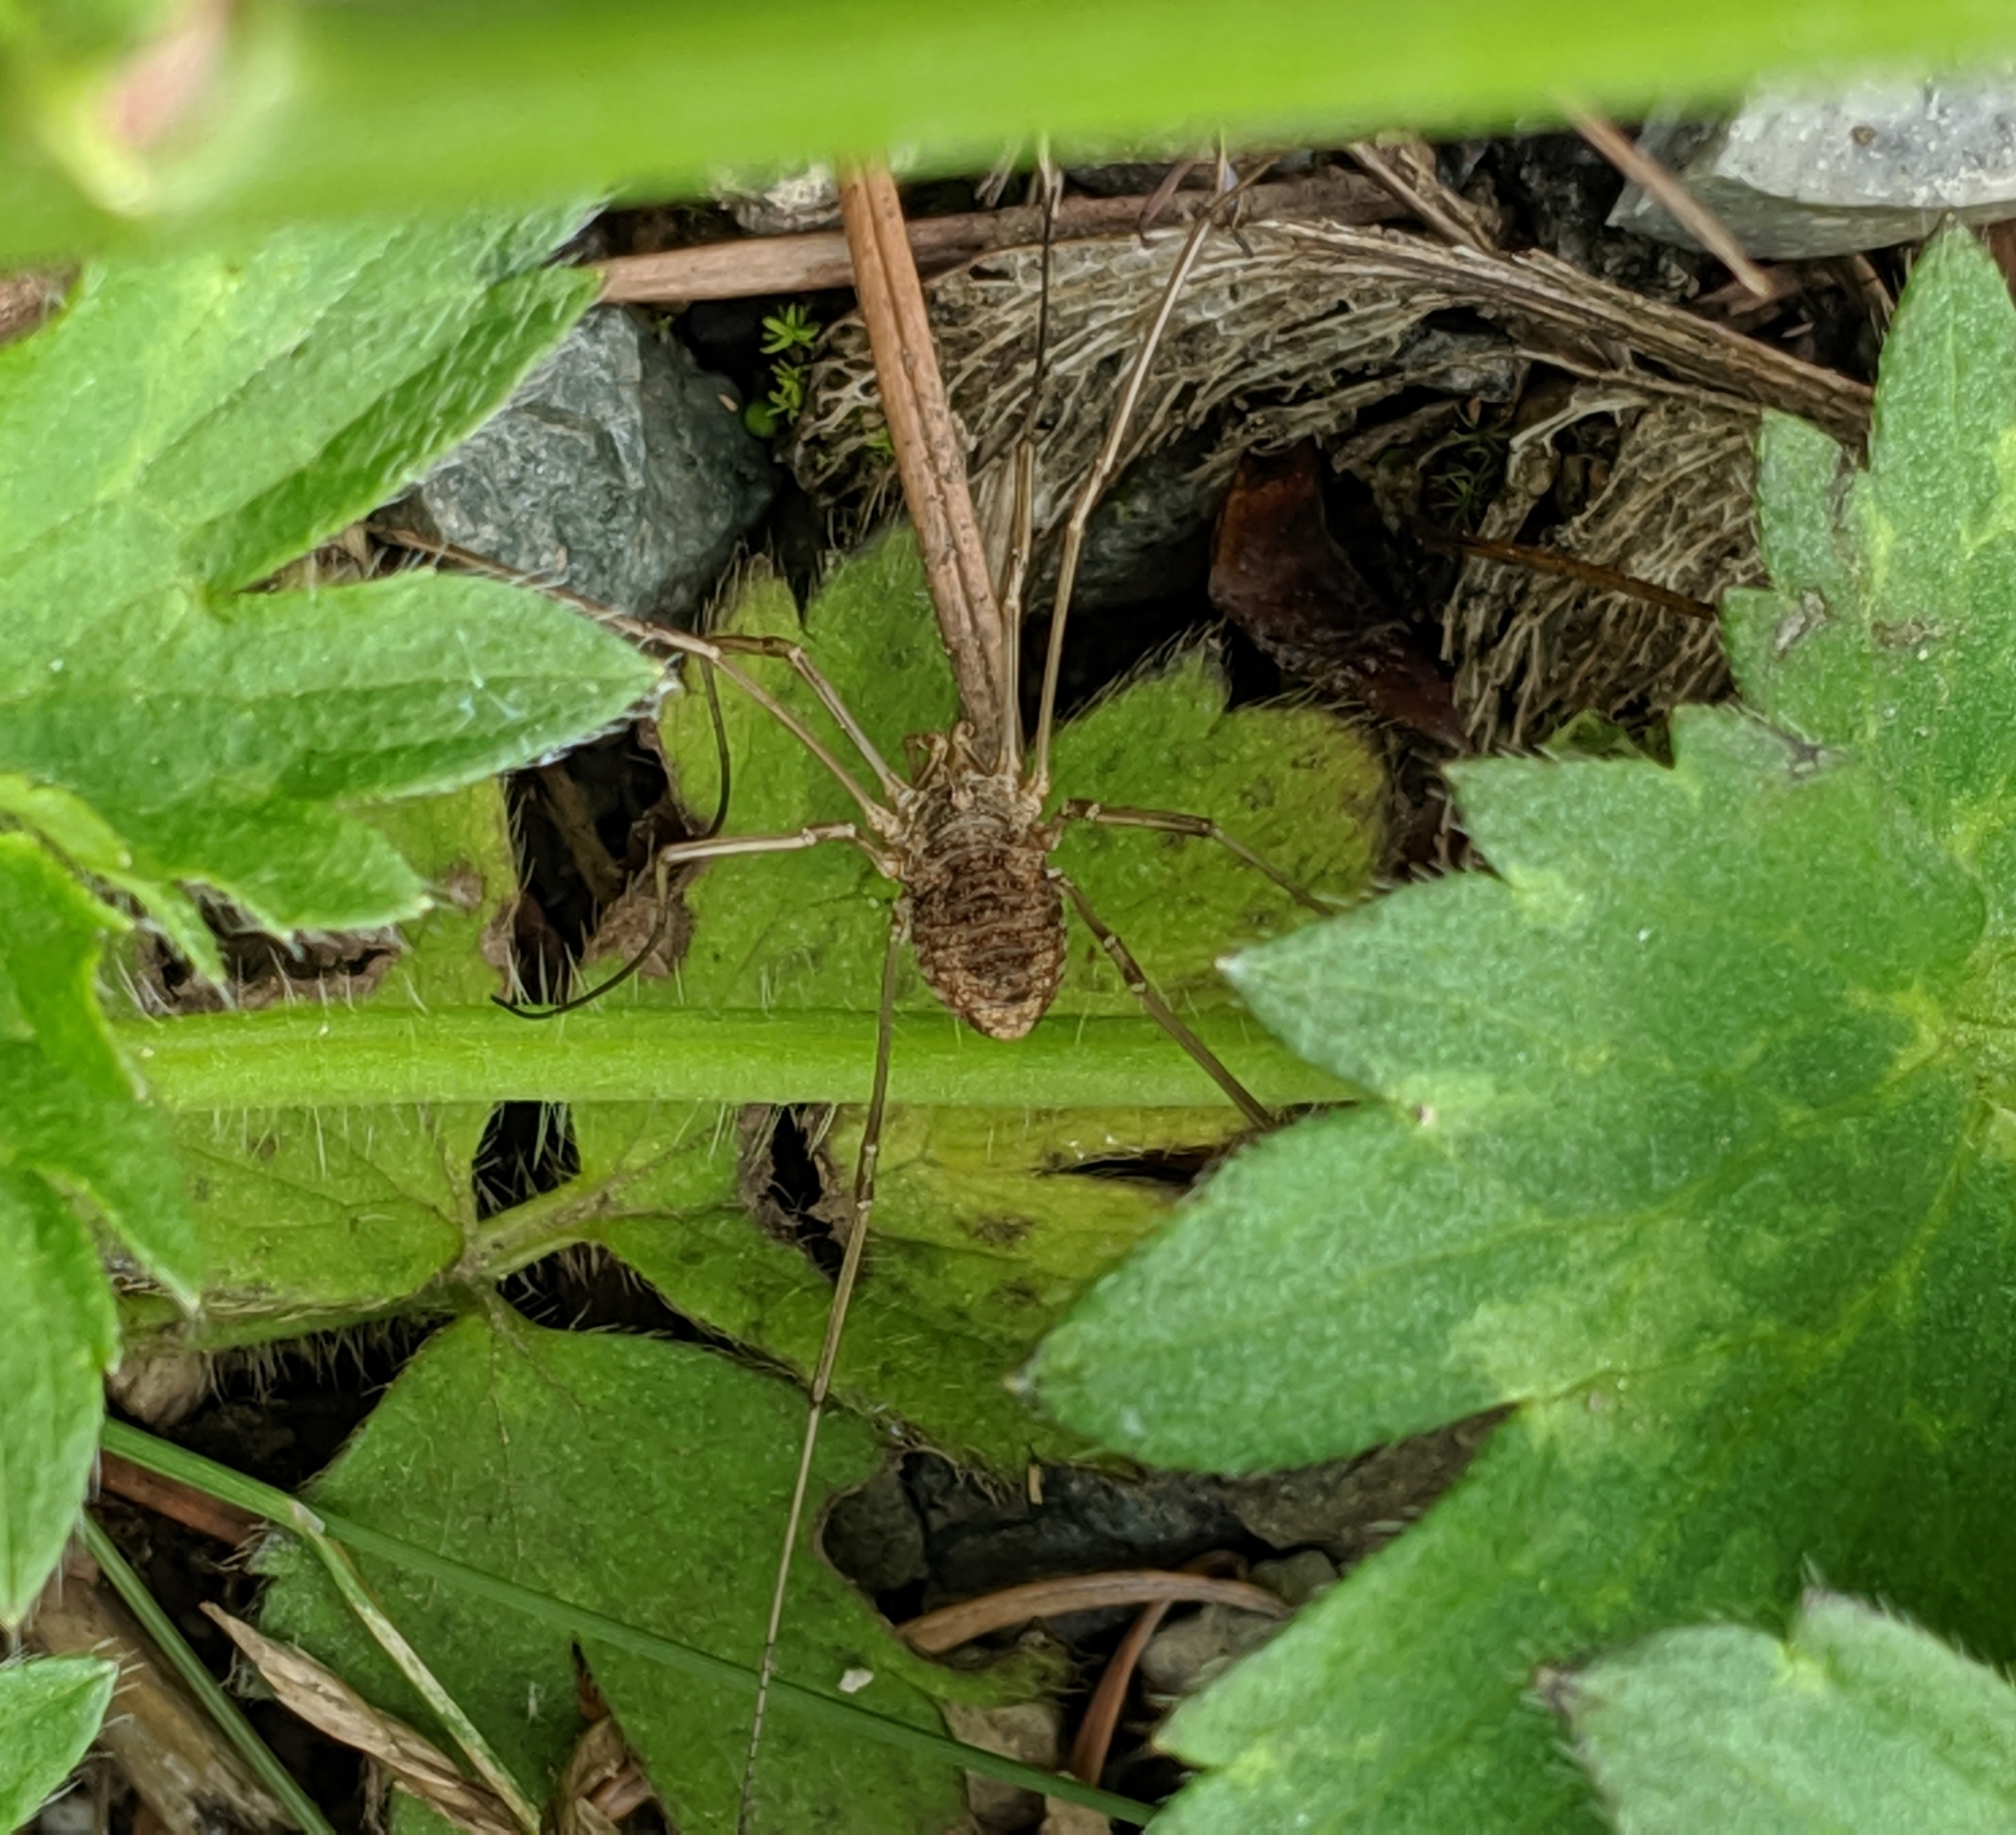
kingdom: Animalia
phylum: Arthropoda
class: Arachnida
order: Opiliones
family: Phalangiidae
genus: Phalangium
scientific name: Phalangium opilio
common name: Daddy longleg
